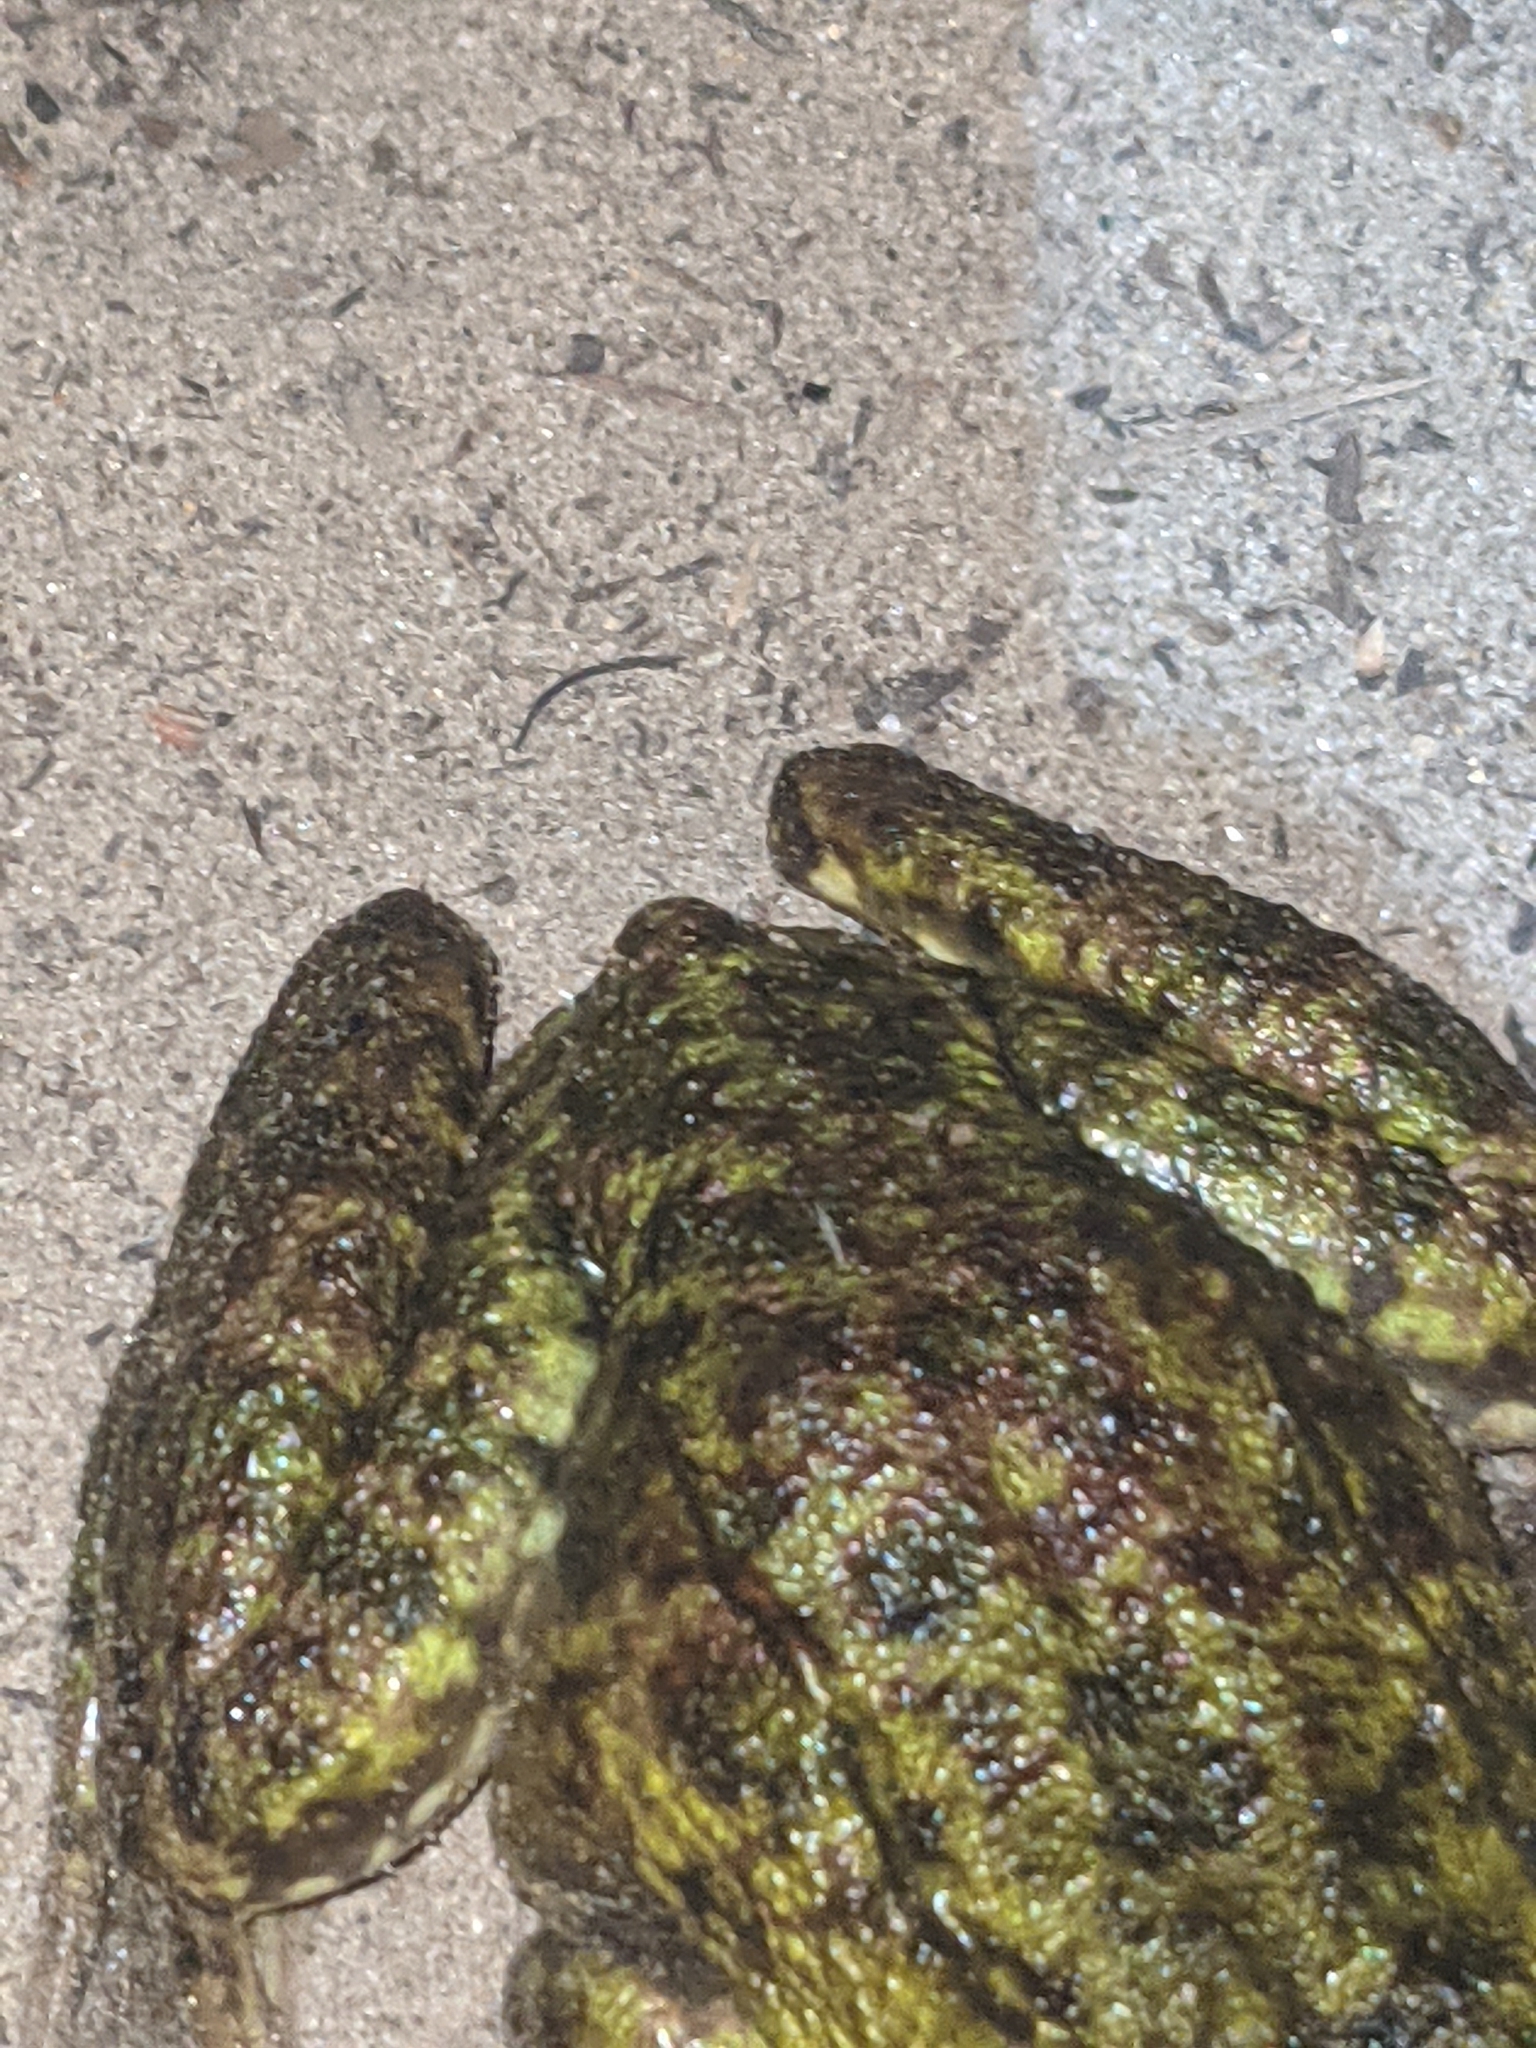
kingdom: Animalia
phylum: Chordata
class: Amphibia
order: Anura
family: Ranidae
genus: Lithobates
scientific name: Lithobates clamitans
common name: Green frog
